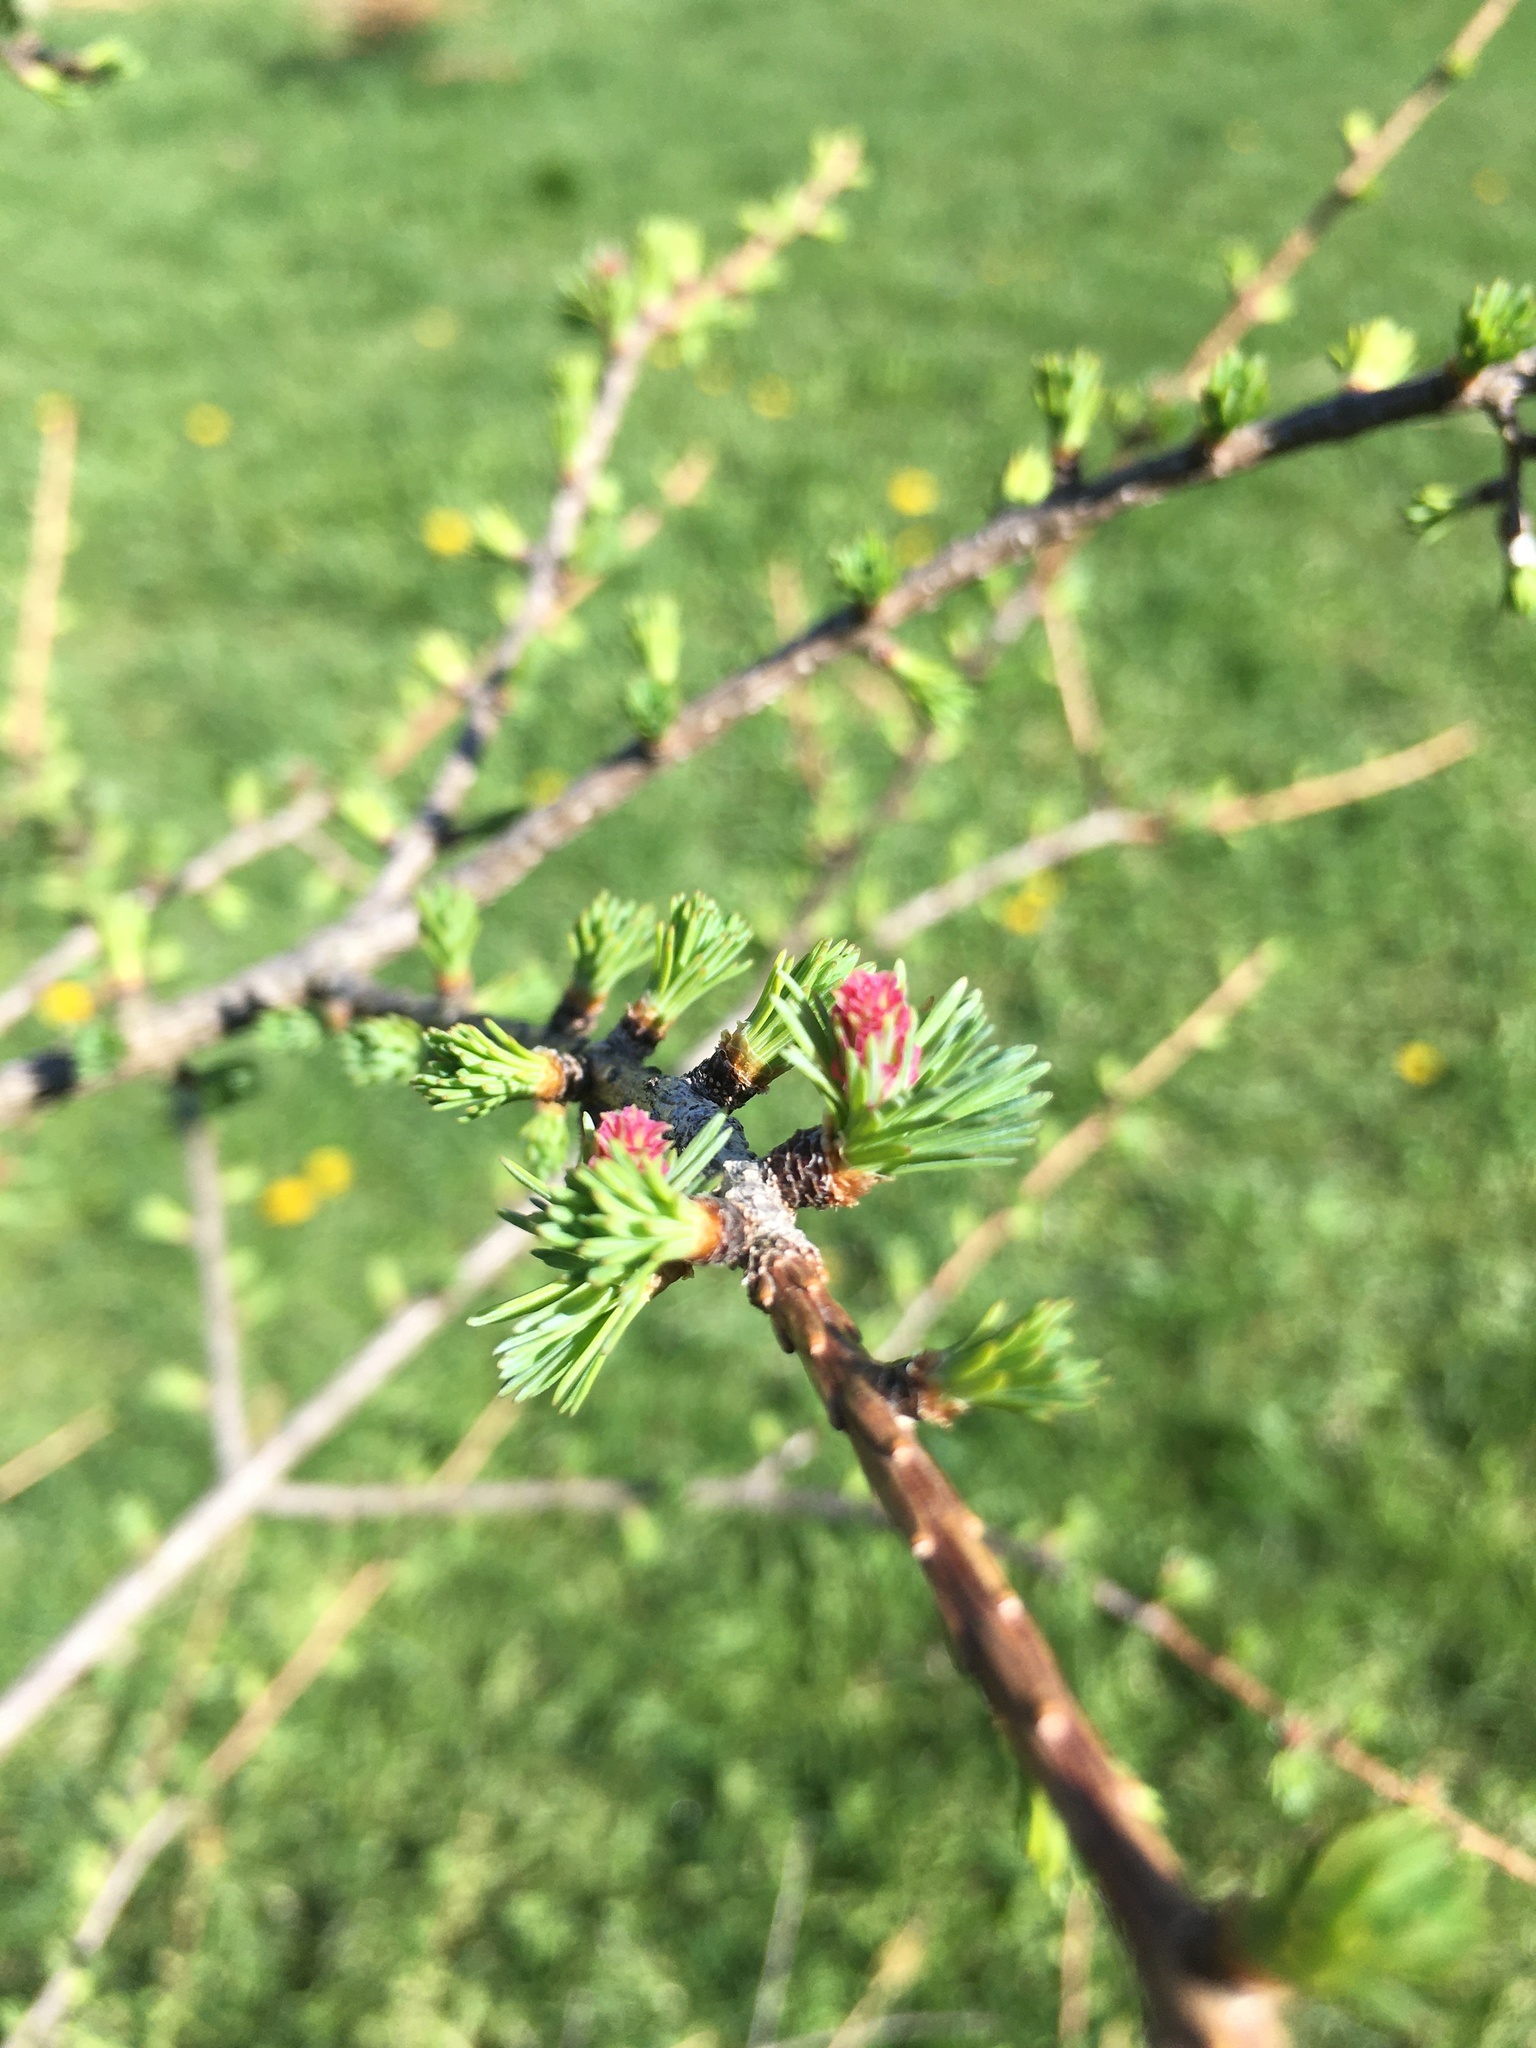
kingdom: Plantae
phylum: Tracheophyta
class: Pinopsida
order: Pinales
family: Pinaceae
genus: Larix
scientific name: Larix laricina
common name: American larch
